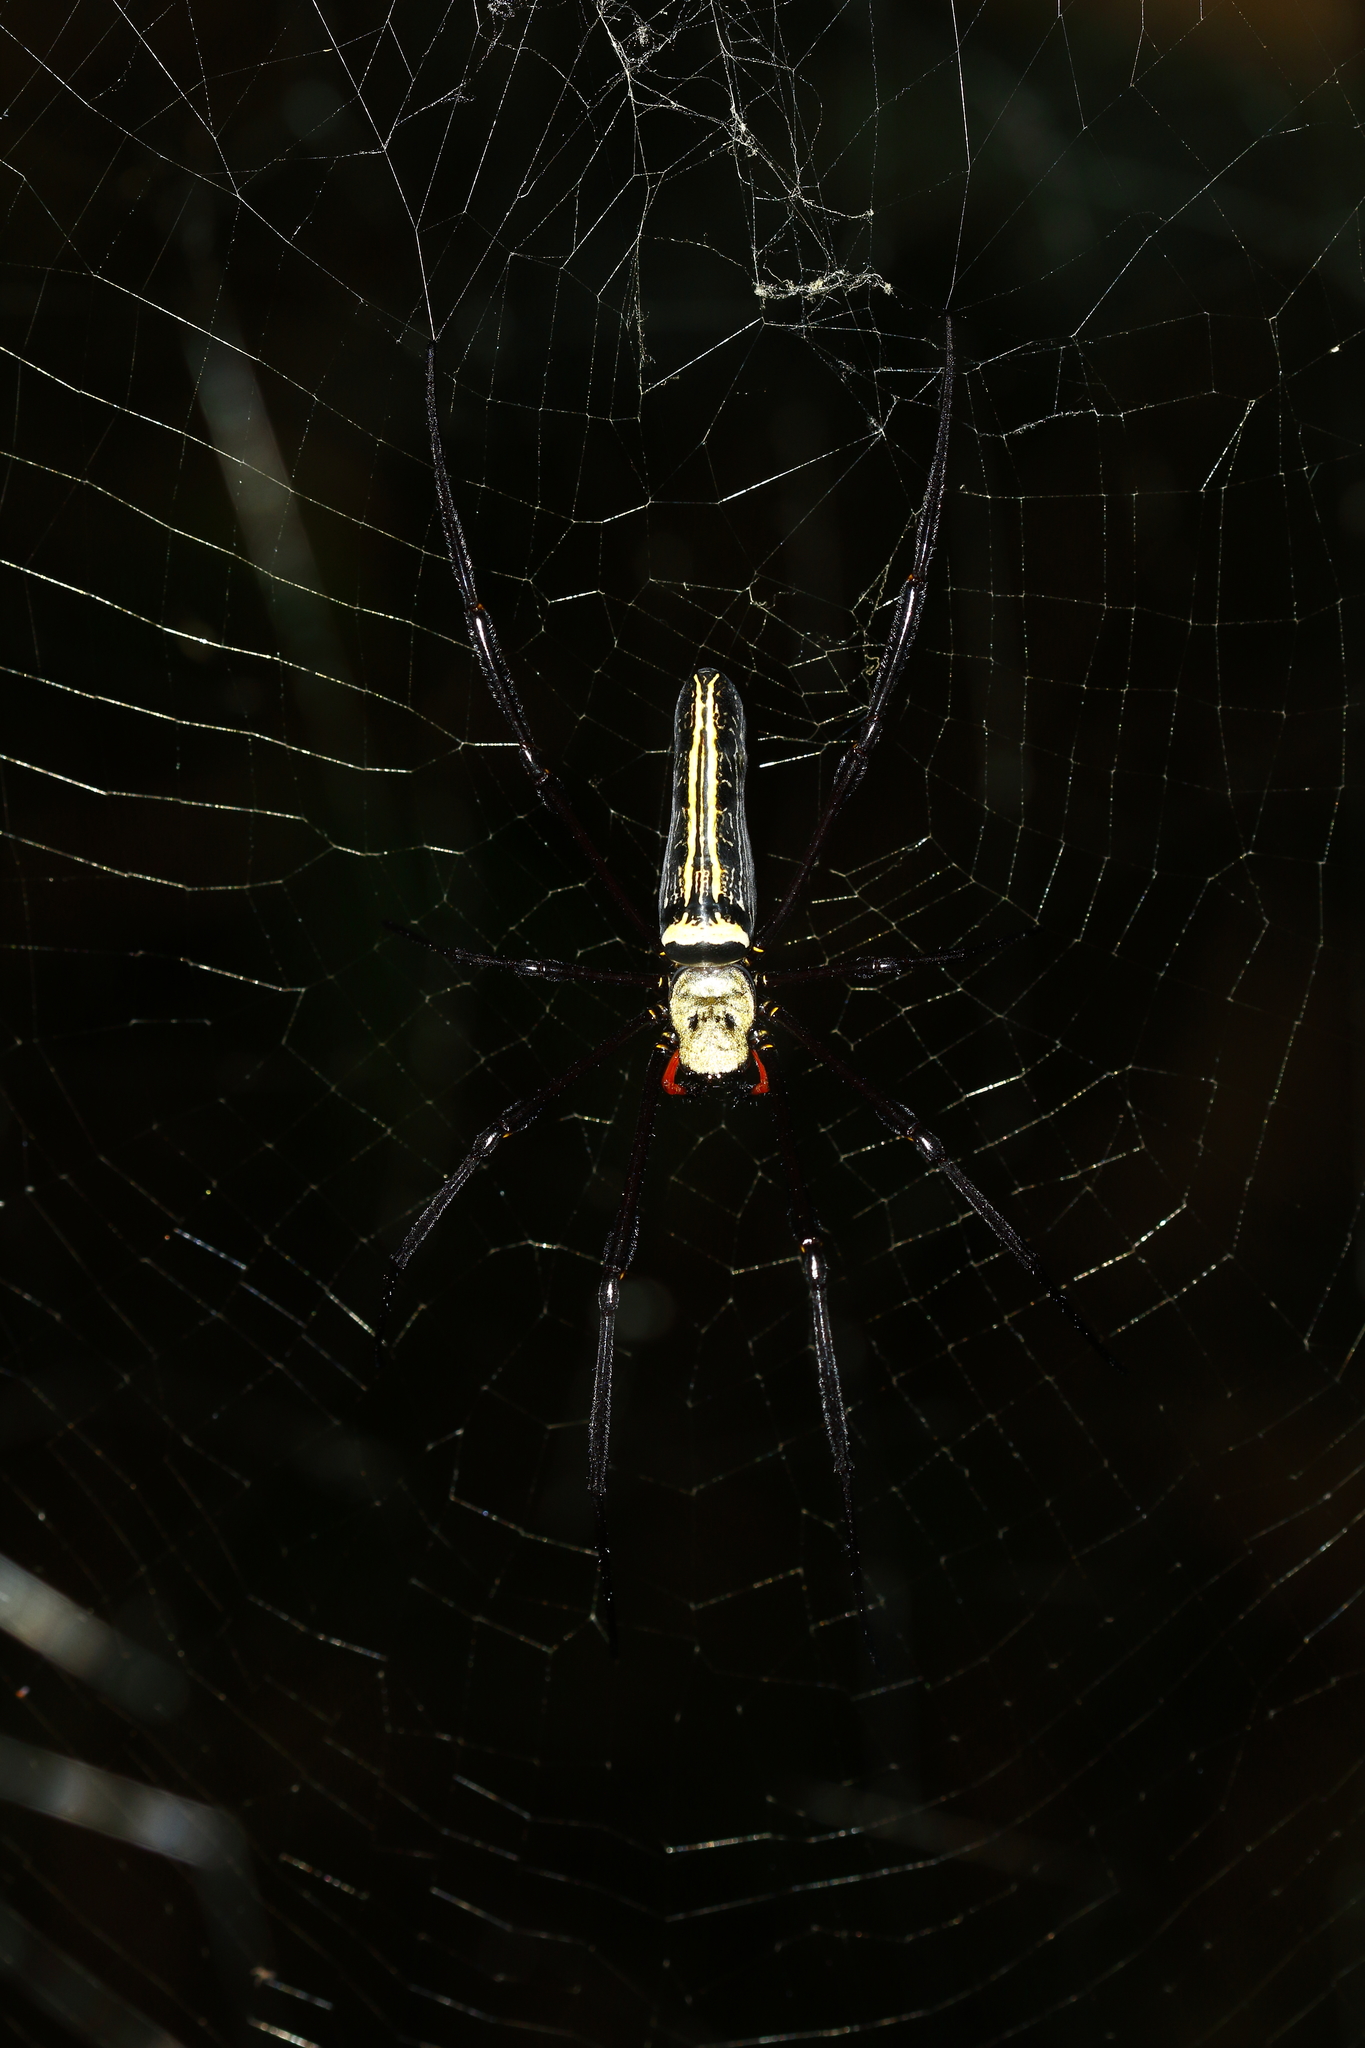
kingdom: Animalia
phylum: Arthropoda
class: Arachnida
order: Araneae
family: Araneidae
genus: Nephila
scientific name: Nephila pilipes
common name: Giant golden orb weaver
